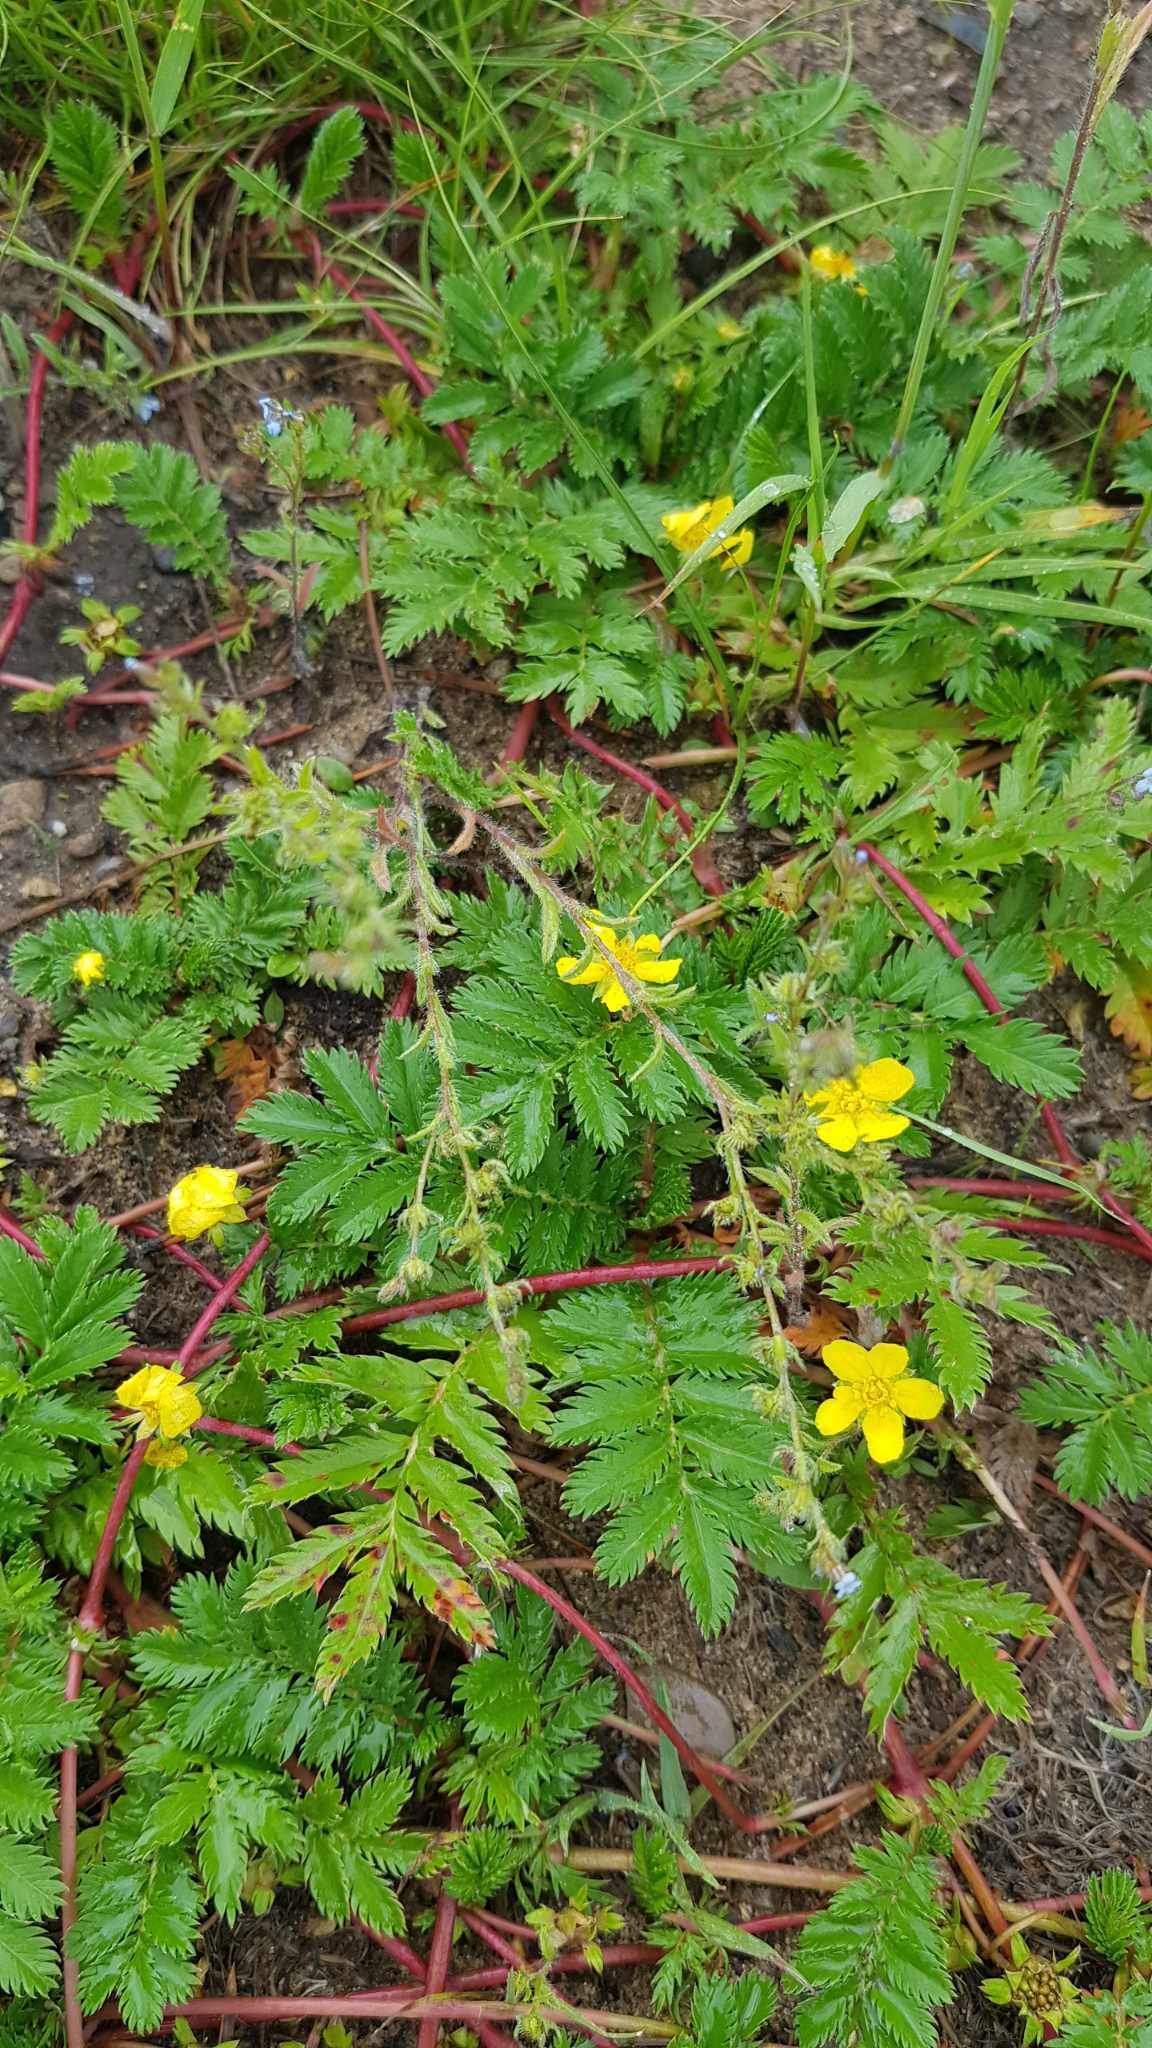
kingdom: Plantae
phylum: Tracheophyta
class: Magnoliopsida
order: Rosales
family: Rosaceae
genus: Argentina
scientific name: Argentina anserina
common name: Common silverweed
